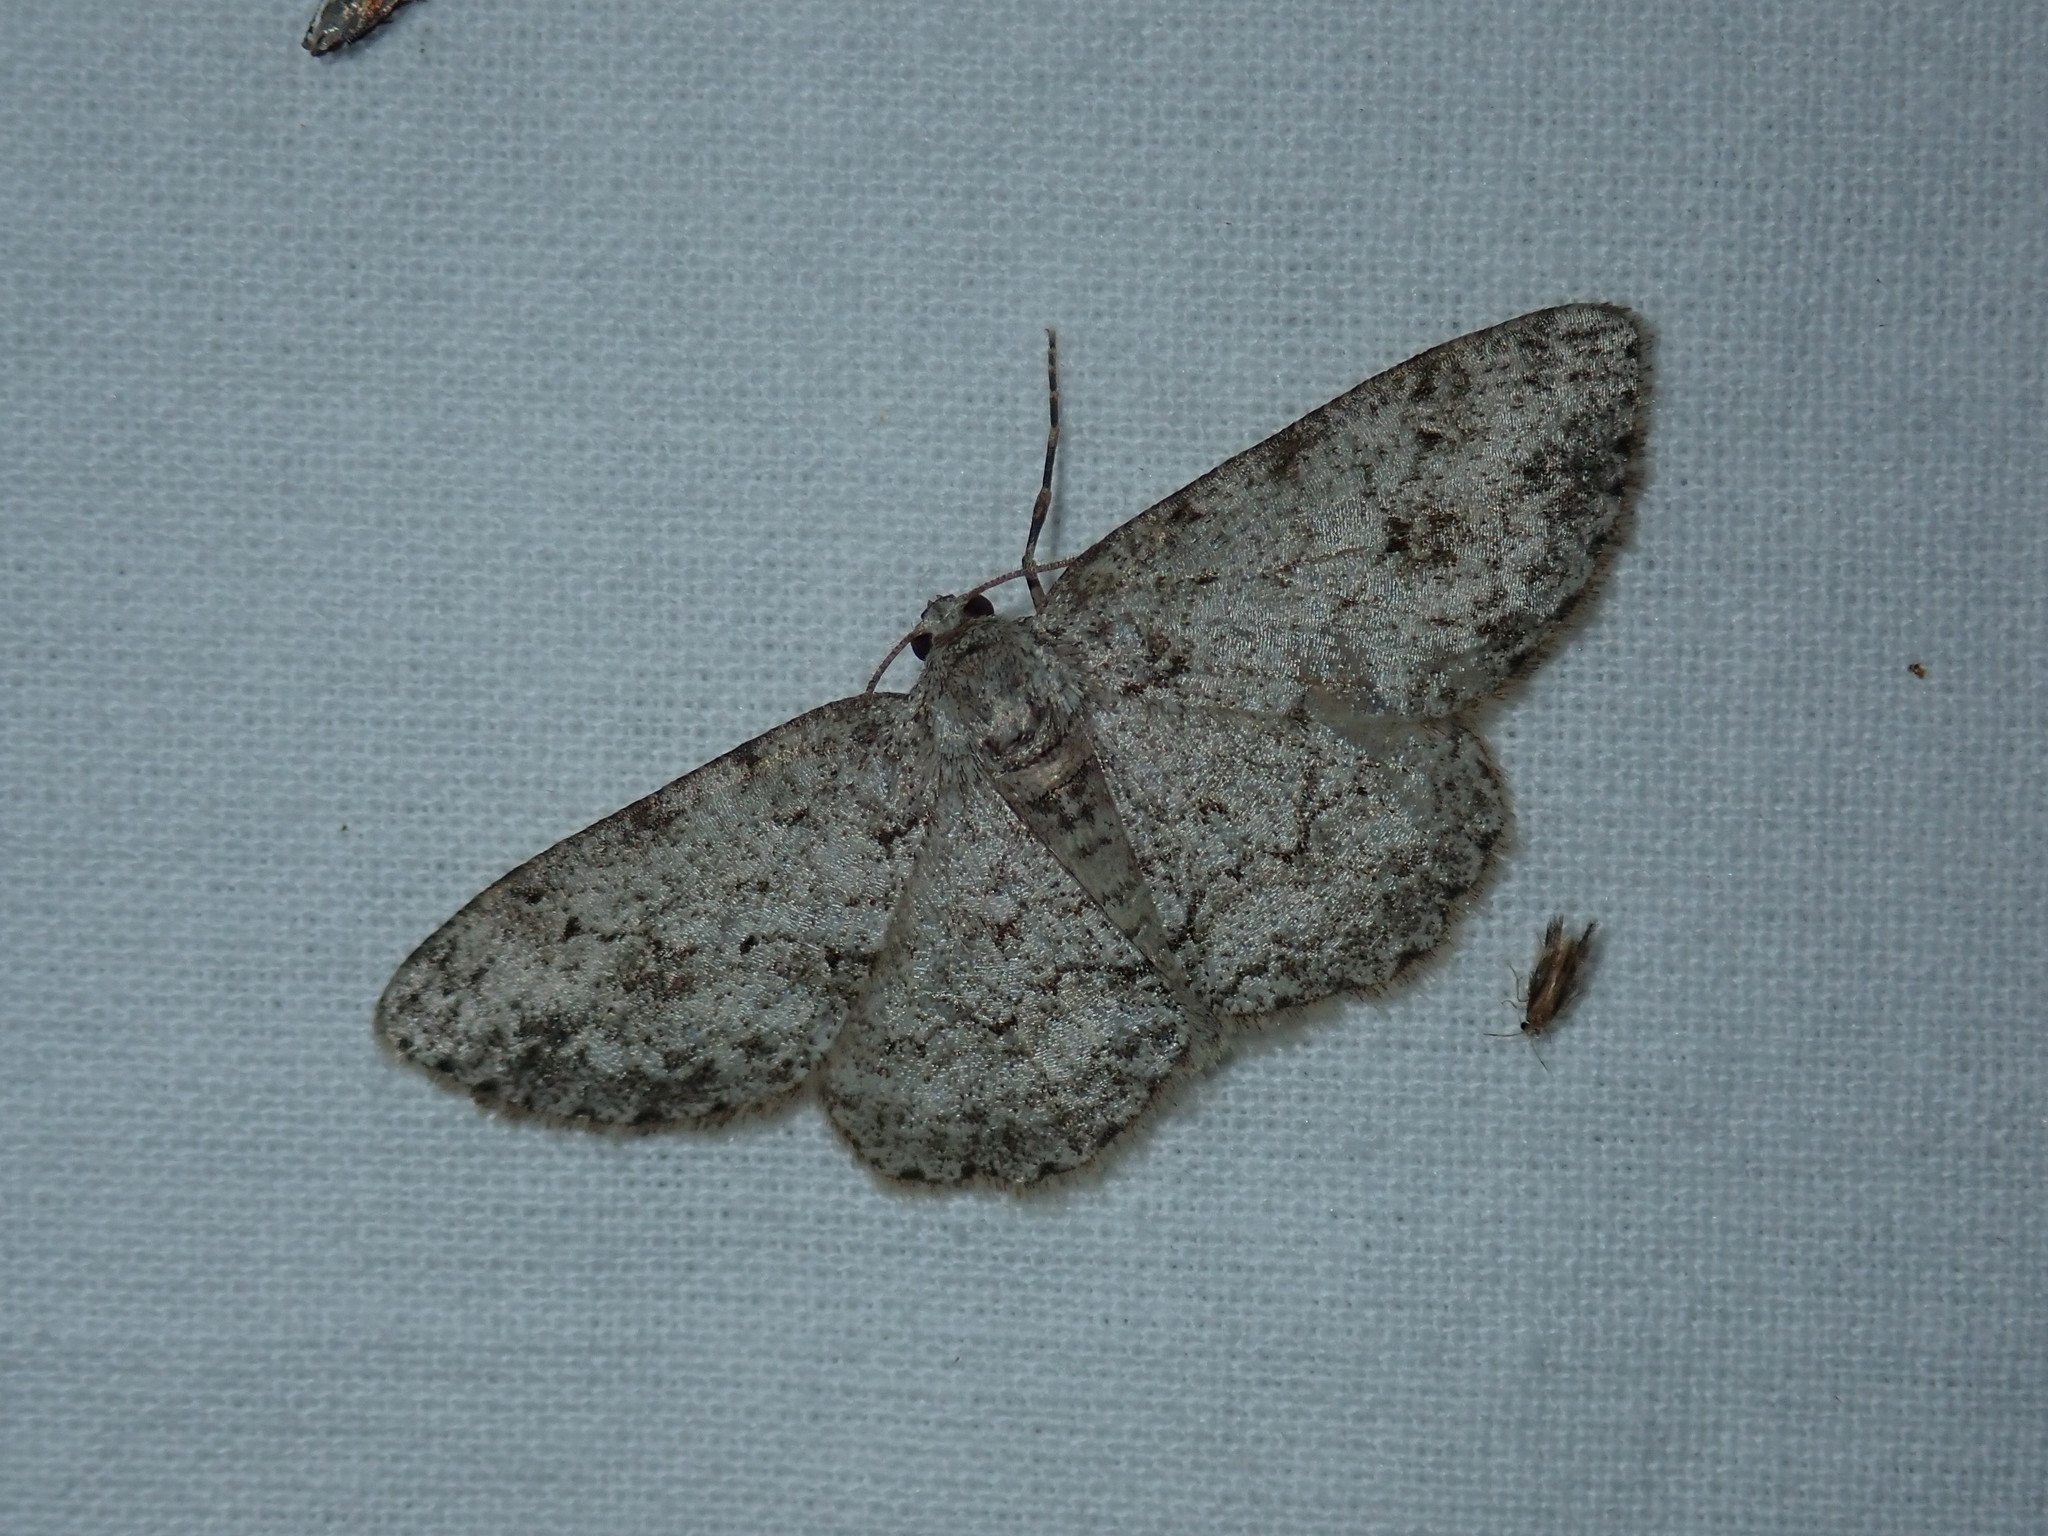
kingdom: Animalia
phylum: Arthropoda
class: Insecta
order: Lepidoptera
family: Geometridae
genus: Ectropis
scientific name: Ectropis crepuscularia
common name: Engrailed
